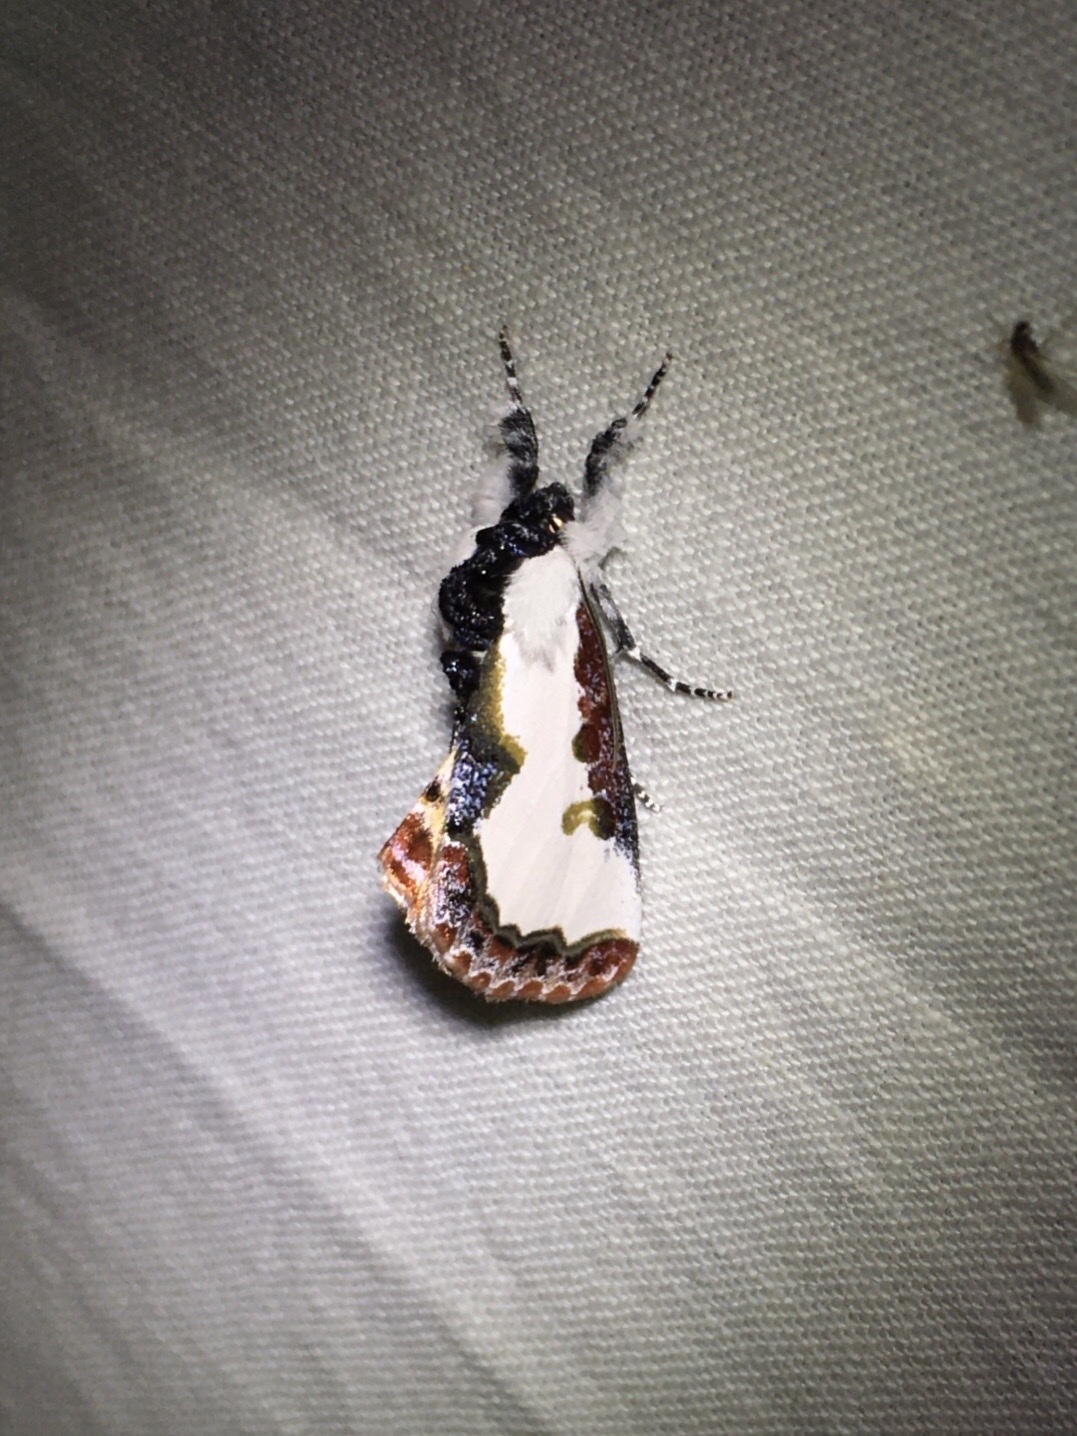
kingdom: Animalia
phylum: Arthropoda
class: Insecta
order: Lepidoptera
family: Noctuidae
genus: Eudryas
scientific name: Eudryas unio
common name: Pearly wood-nymph
